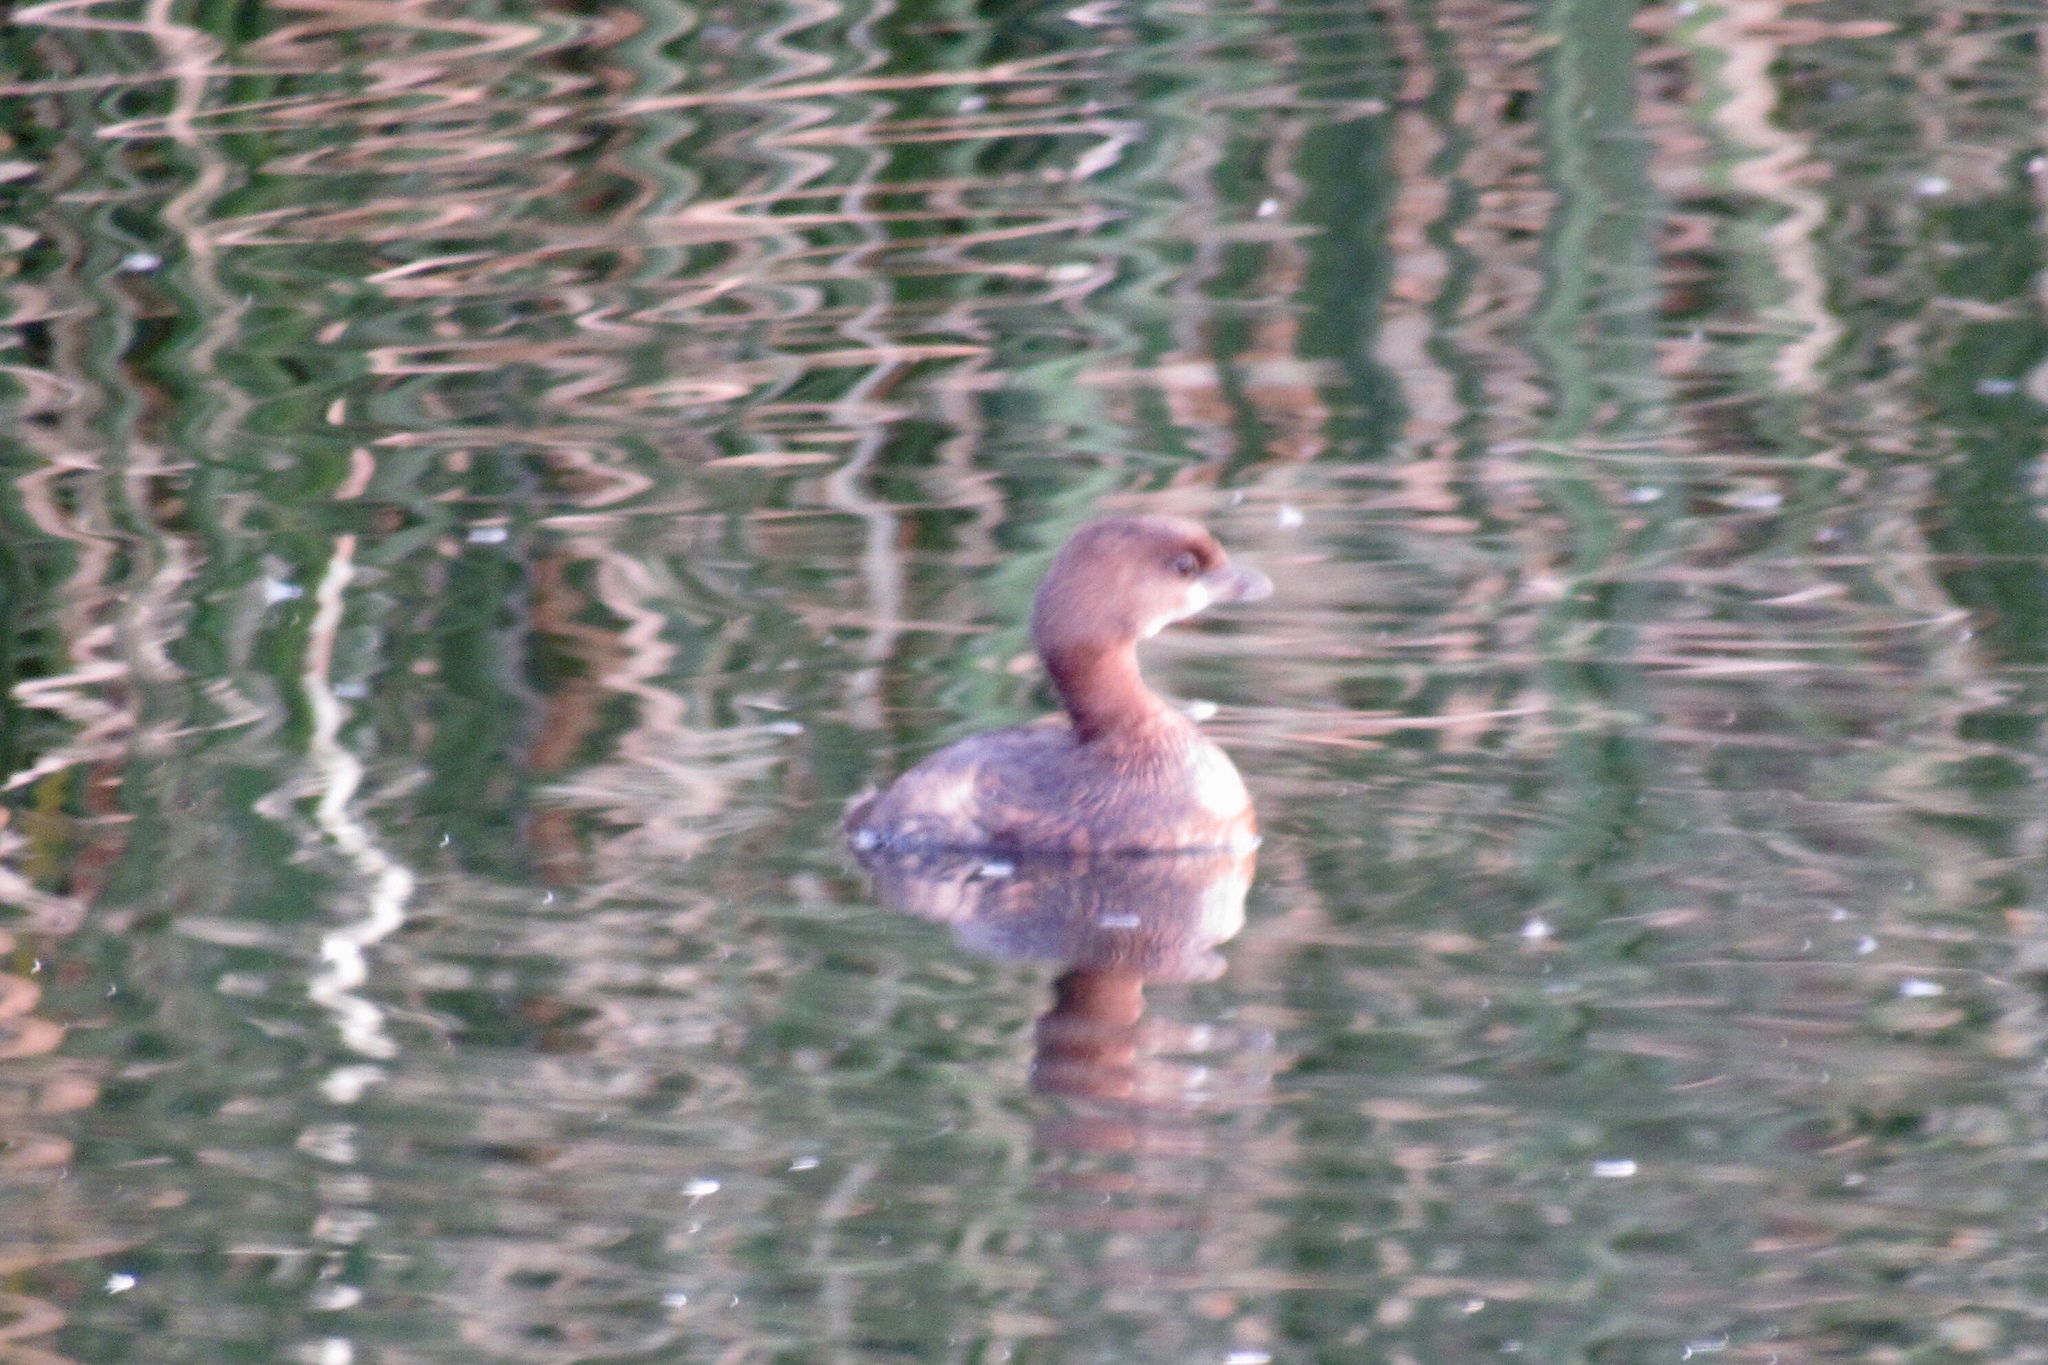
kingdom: Animalia
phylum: Chordata
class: Aves
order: Podicipediformes
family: Podicipedidae
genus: Podilymbus
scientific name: Podilymbus podiceps
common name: Pied-billed grebe
